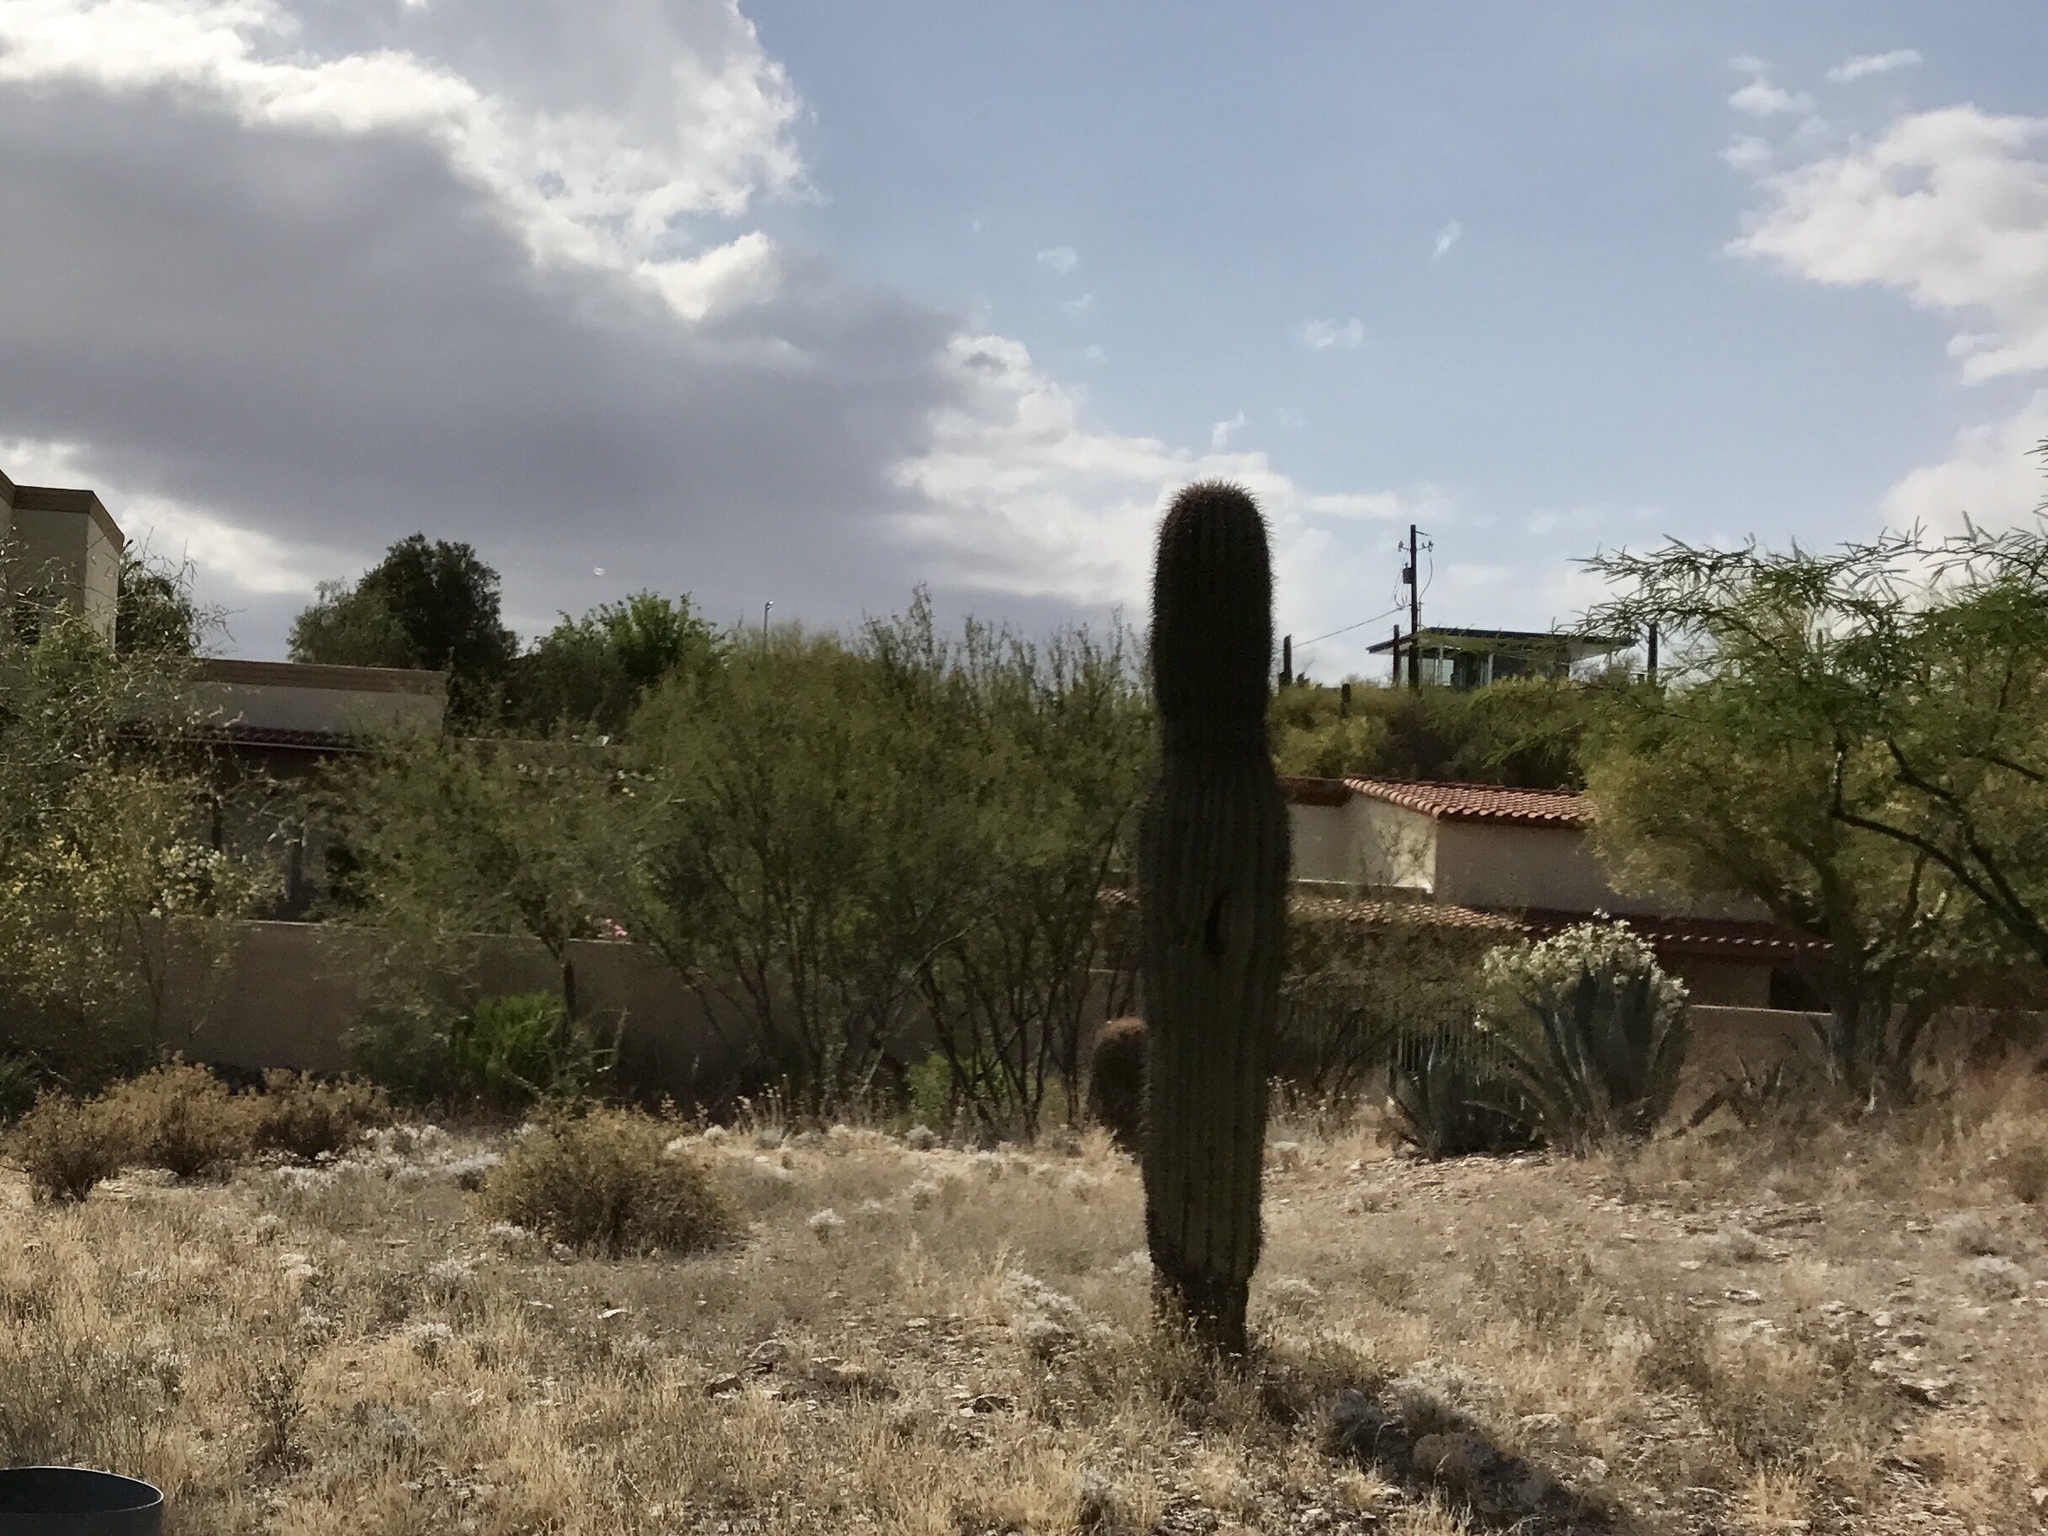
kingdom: Plantae
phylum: Tracheophyta
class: Magnoliopsida
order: Caryophyllales
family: Cactaceae
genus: Carnegiea
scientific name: Carnegiea gigantea
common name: Saguaro
